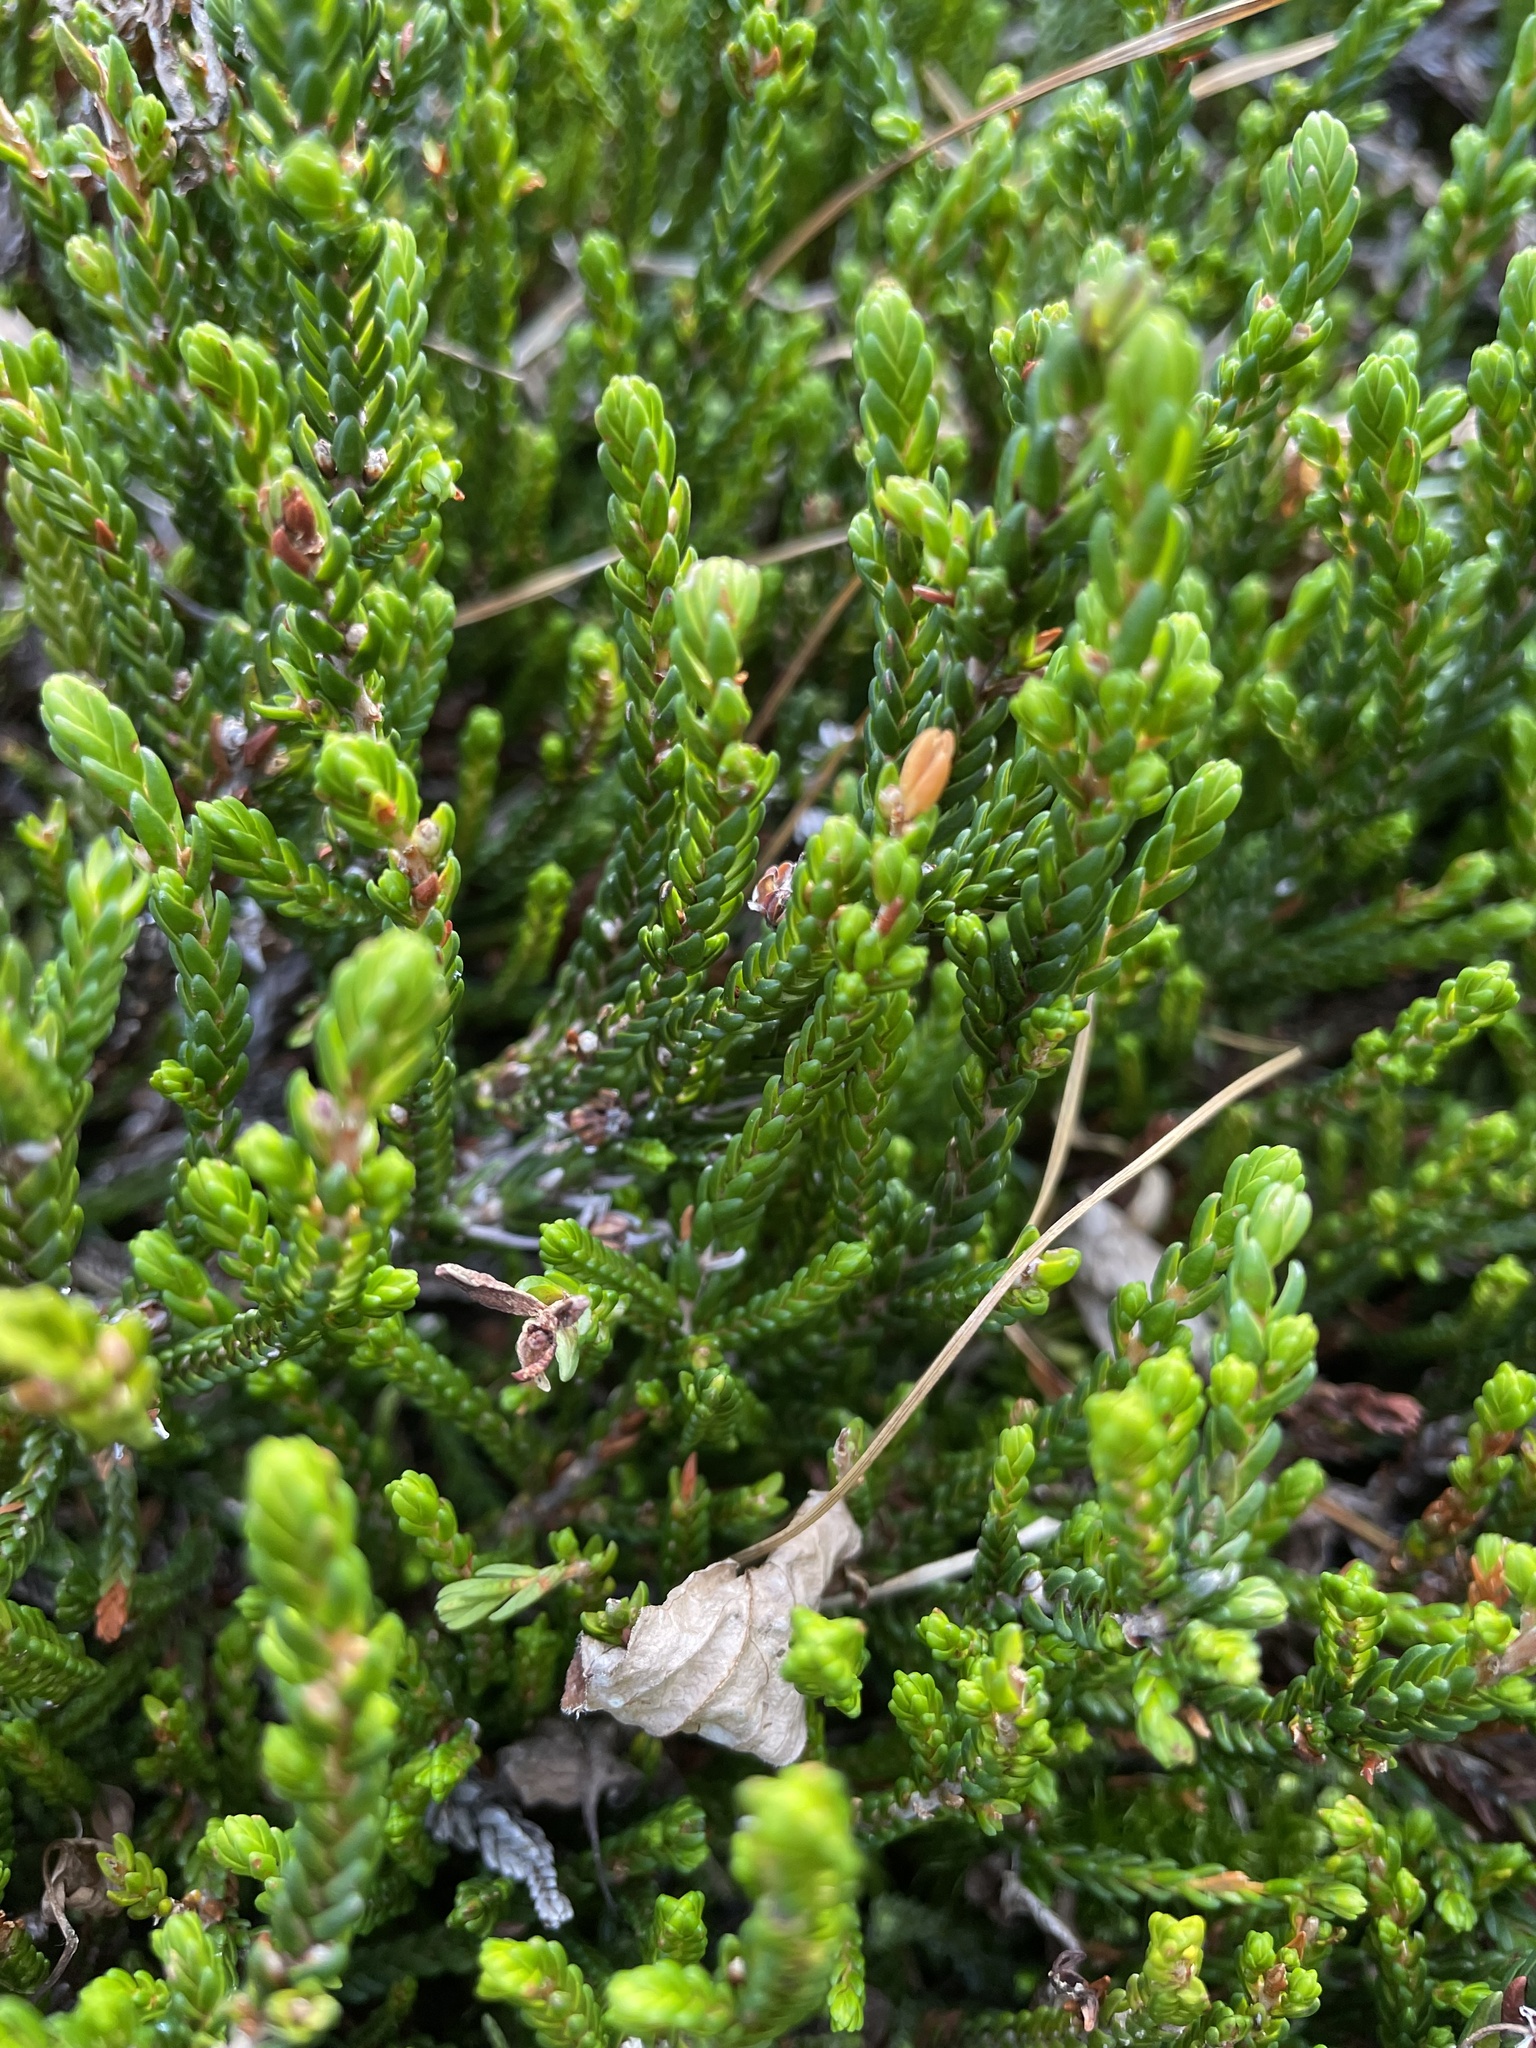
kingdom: Plantae
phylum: Tracheophyta
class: Magnoliopsida
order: Ericales
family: Ericaceae
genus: Cassiope
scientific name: Cassiope mertensiana
